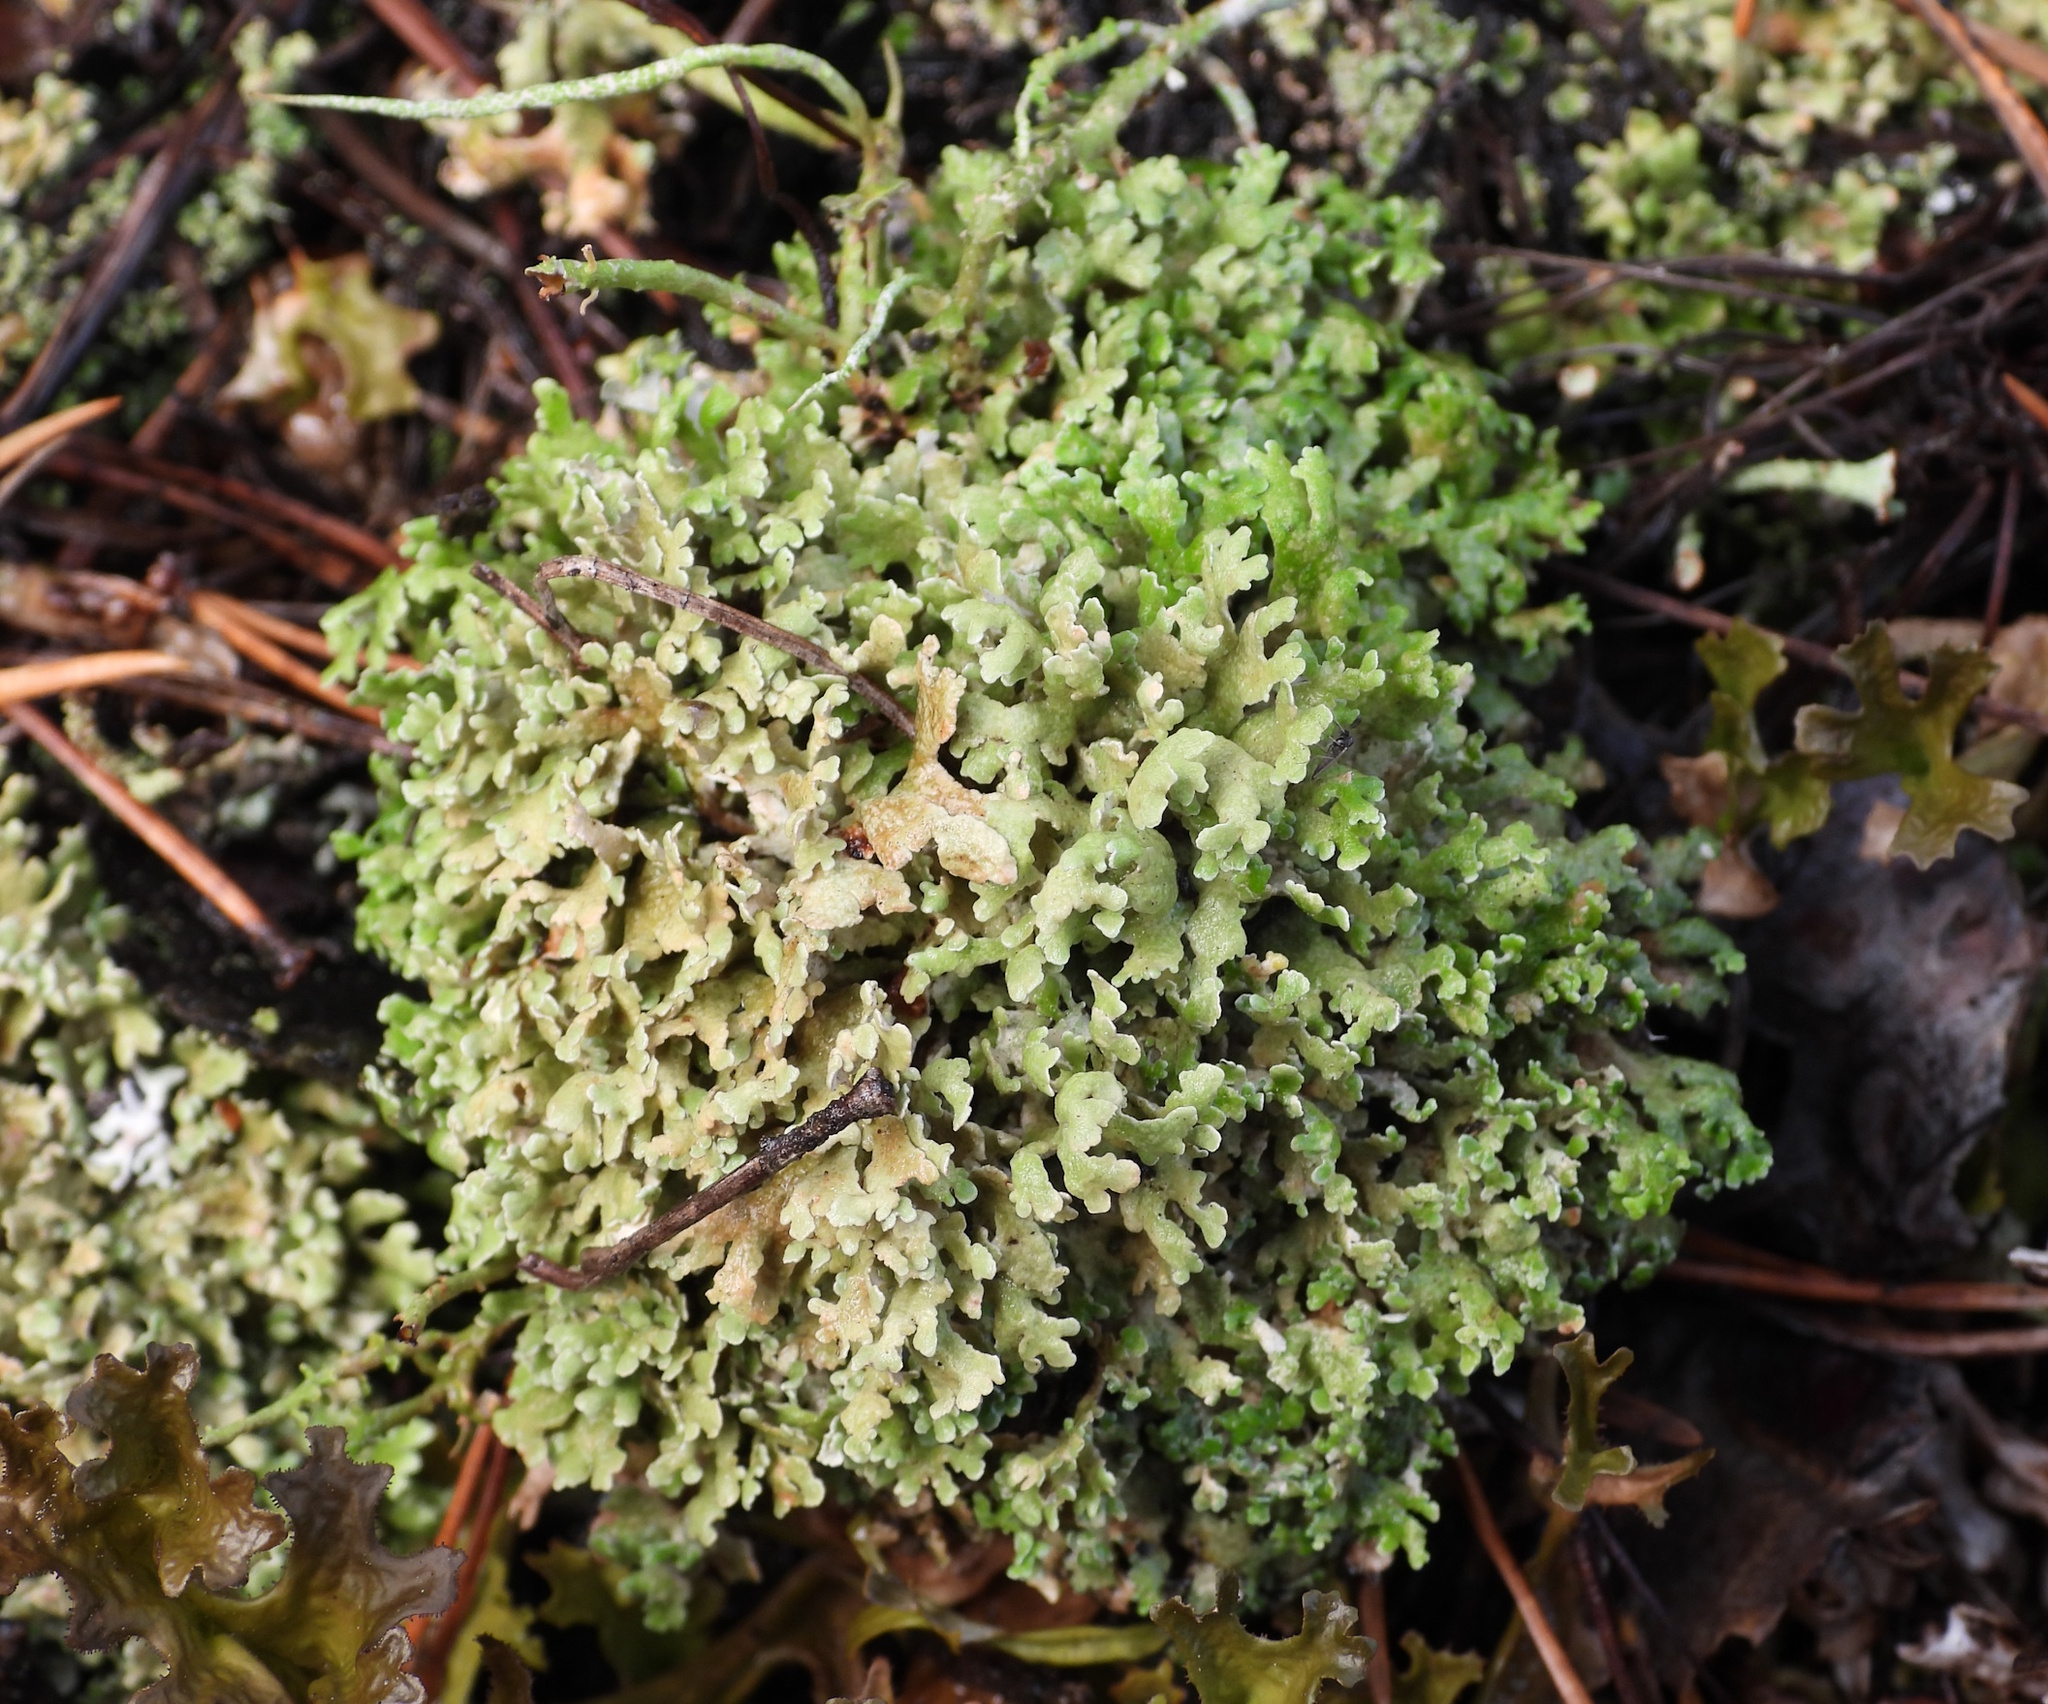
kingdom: Fungi
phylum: Ascomycota
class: Lecanoromycetes
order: Lecanorales
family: Cladoniaceae
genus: Cladonia
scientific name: Cladonia strepsilis
